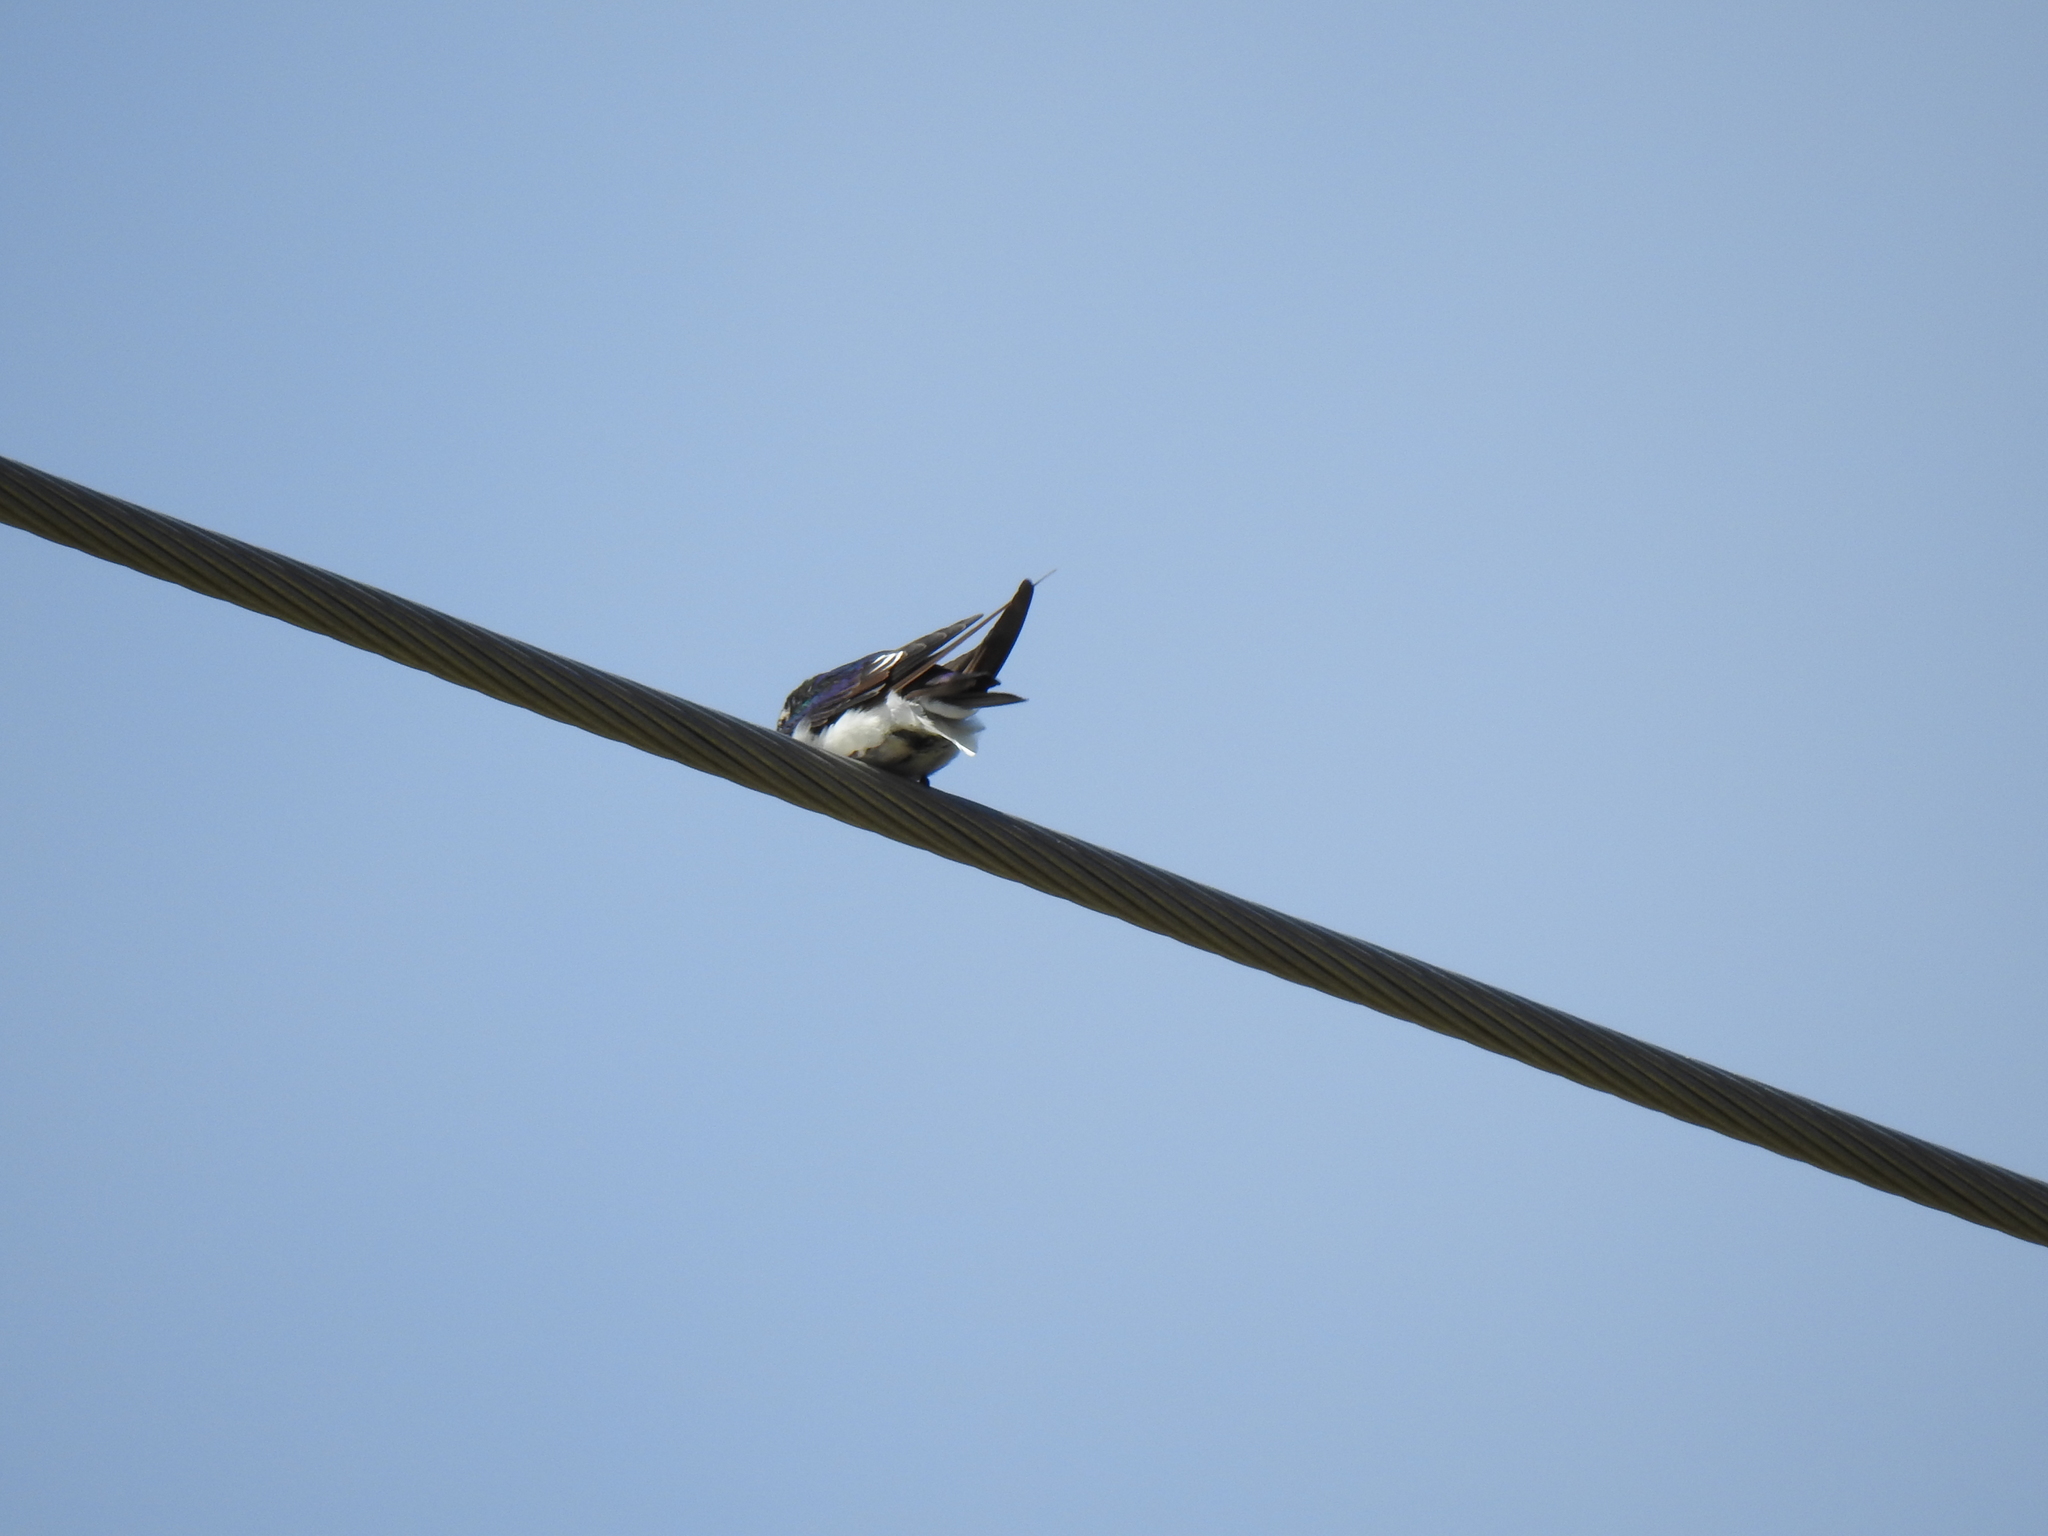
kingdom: Animalia
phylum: Chordata
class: Aves
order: Passeriformes
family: Hirundinidae
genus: Tachycineta
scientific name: Tachycineta thalassina
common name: Violet-green swallow
